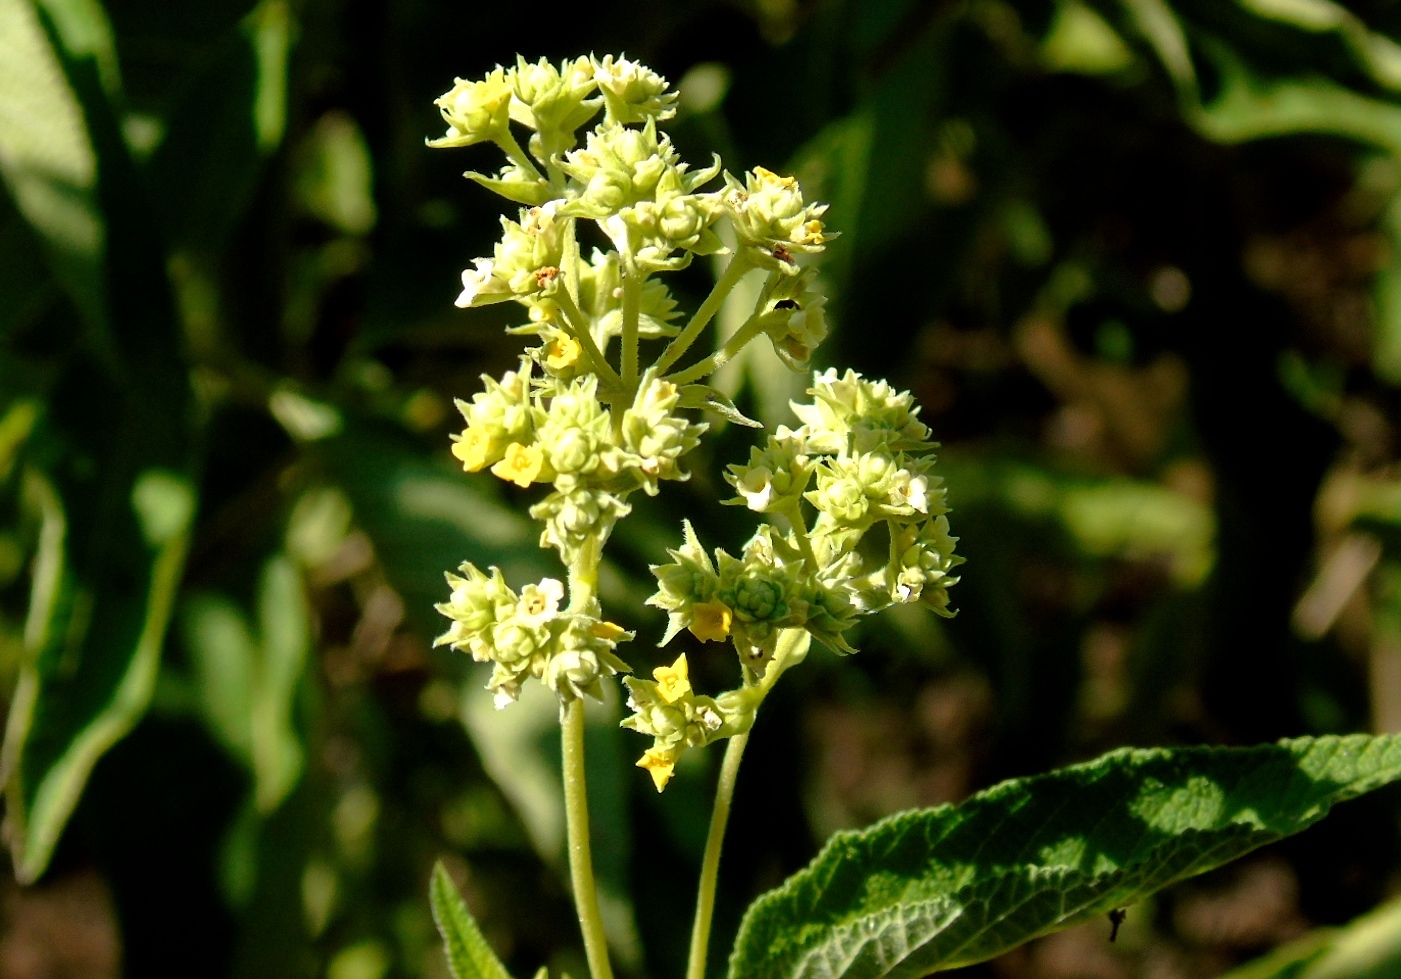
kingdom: Plantae
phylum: Tracheophyta
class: Magnoliopsida
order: Lamiales
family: Verbenaceae
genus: Lippia
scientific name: Lippia umbellata
